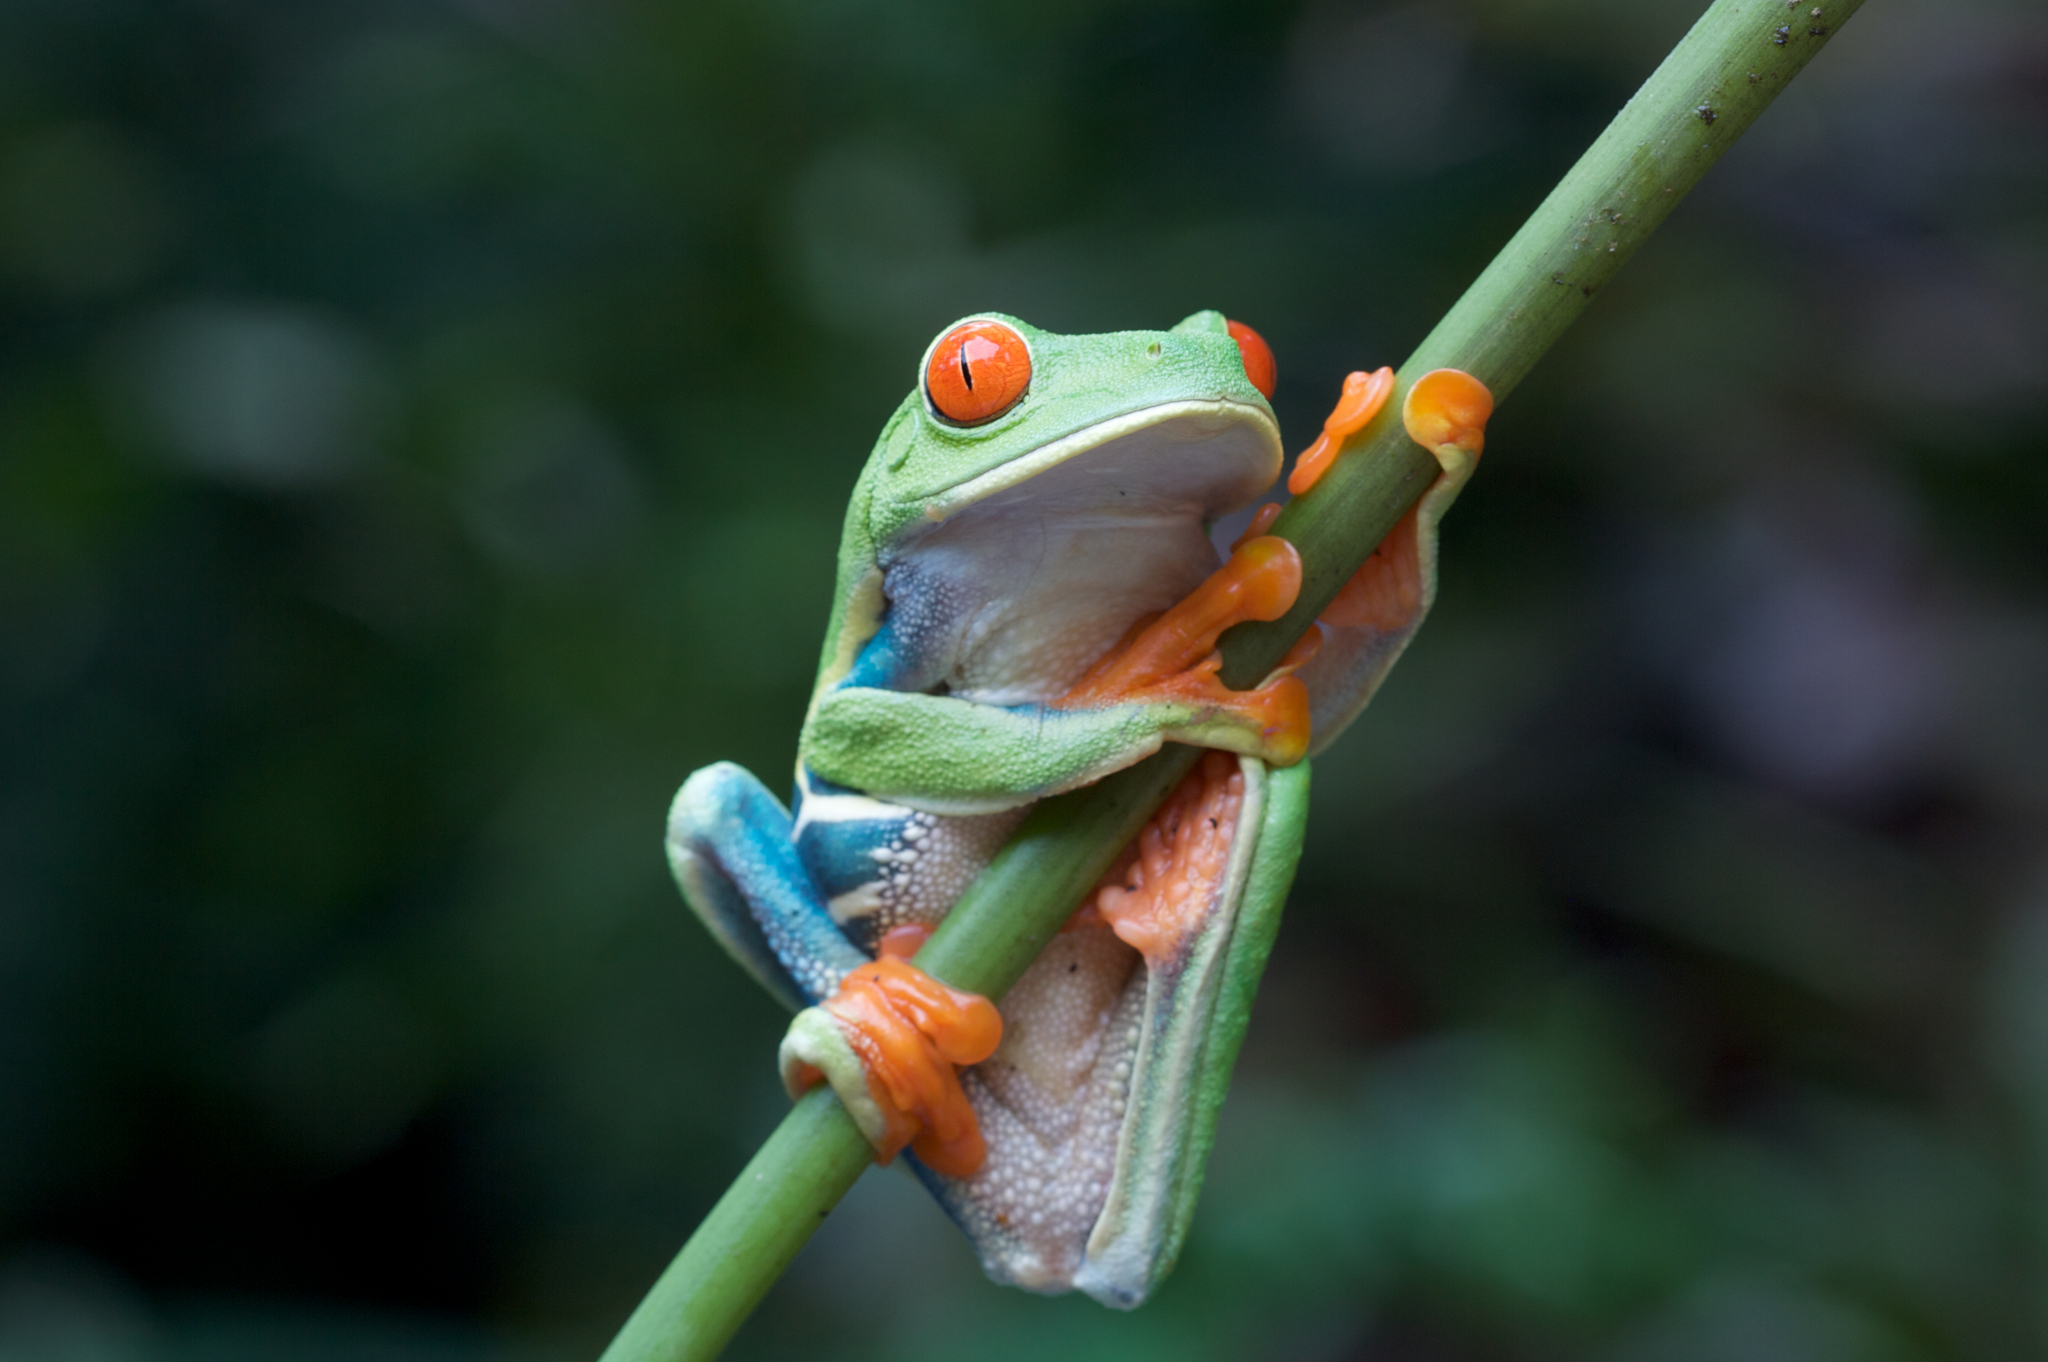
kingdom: Animalia
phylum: Chordata
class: Amphibia
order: Anura
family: Phyllomedusidae
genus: Agalychnis
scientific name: Agalychnis callidryas
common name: Red-eyed treefrog
